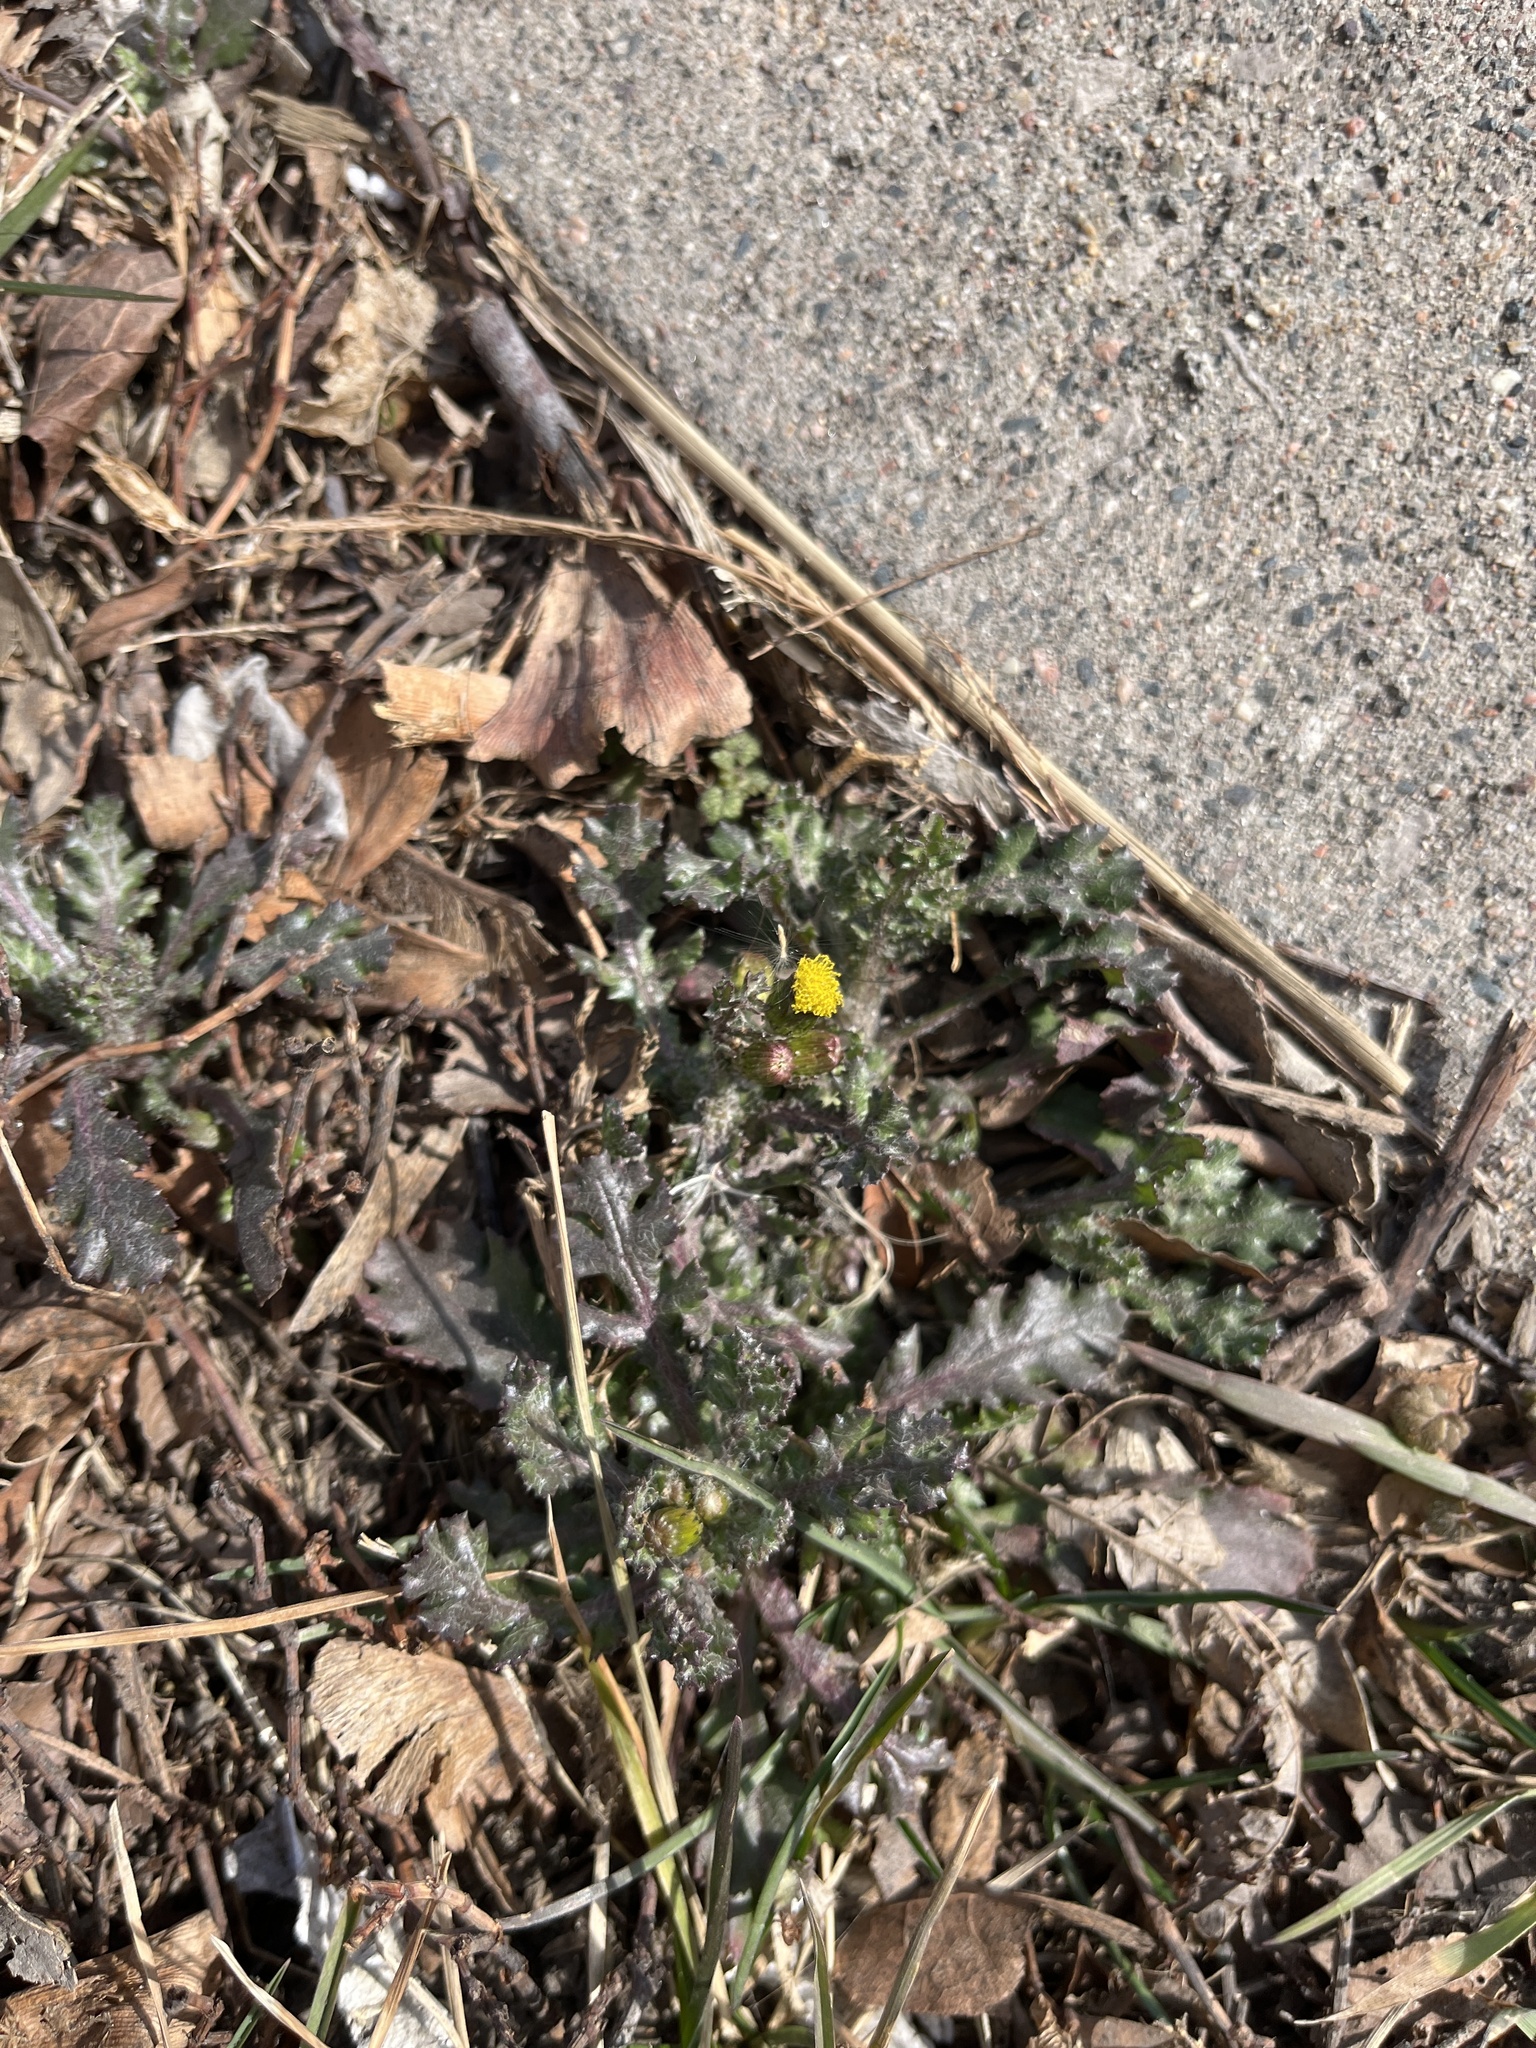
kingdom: Plantae
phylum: Tracheophyta
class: Magnoliopsida
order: Asterales
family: Asteraceae
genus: Senecio
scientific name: Senecio vulgaris
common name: Old-man-in-the-spring
